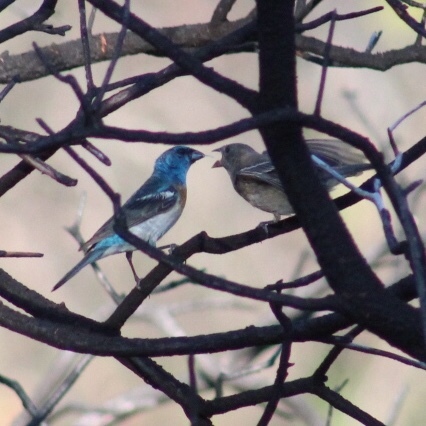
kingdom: Animalia
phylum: Chordata
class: Aves
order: Passeriformes
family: Cardinalidae
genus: Passerina
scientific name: Passerina amoena
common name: Lazuli bunting
